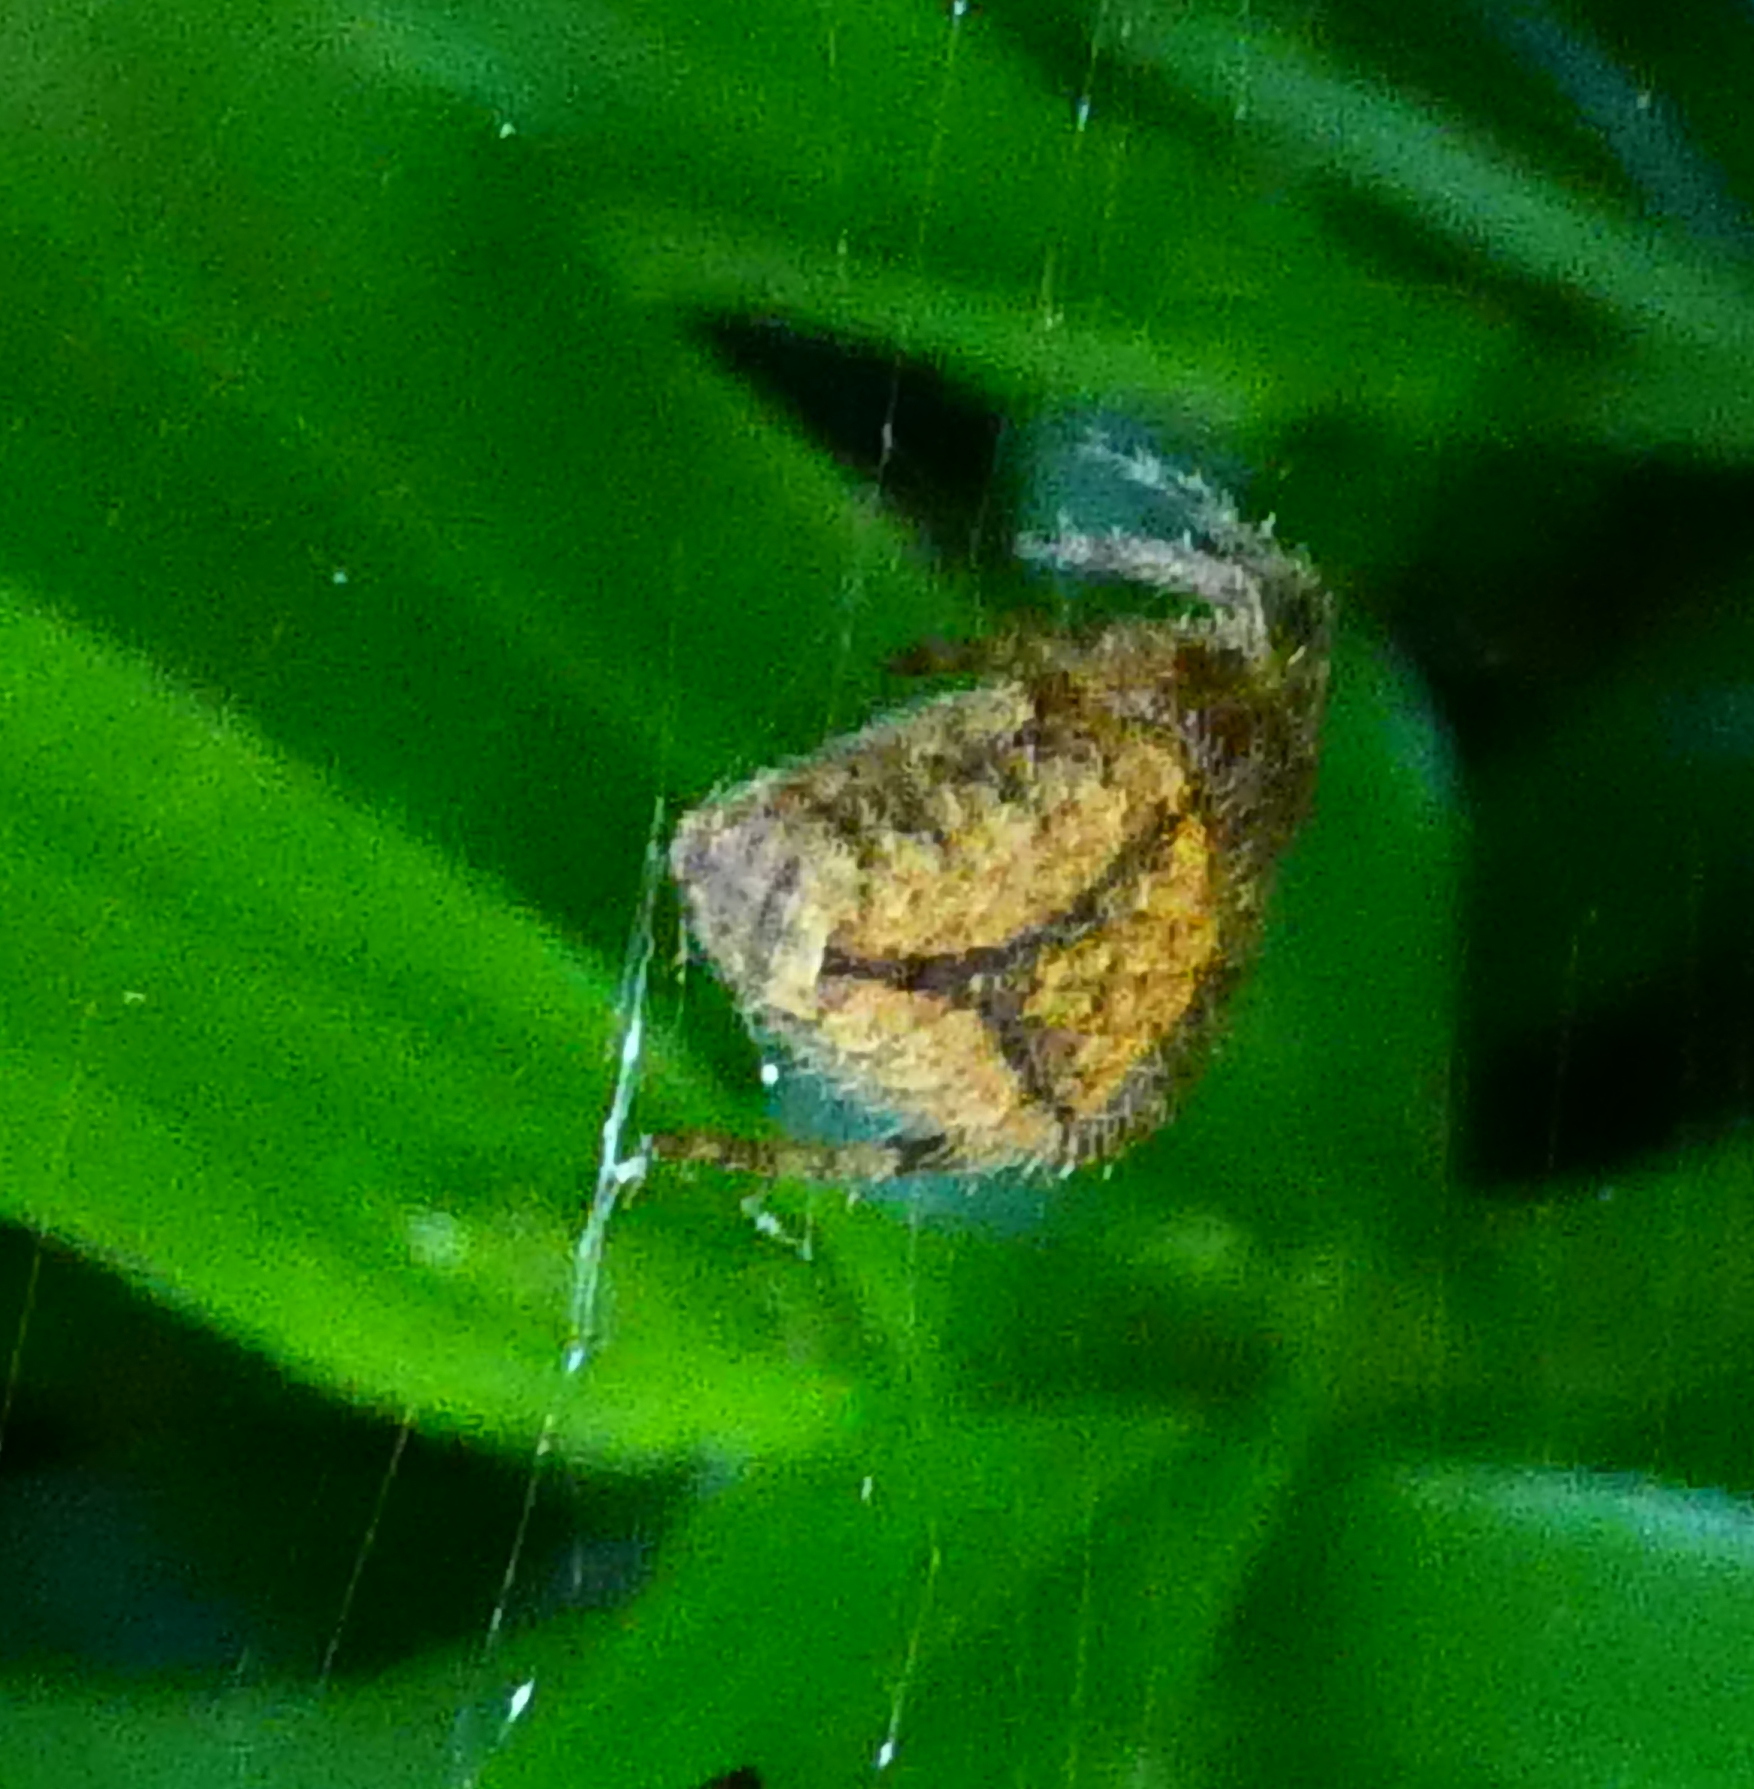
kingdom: Animalia
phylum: Arthropoda
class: Arachnida
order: Araneae
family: Araneidae
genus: Eriophora
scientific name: Eriophora edax
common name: Orb weavers
